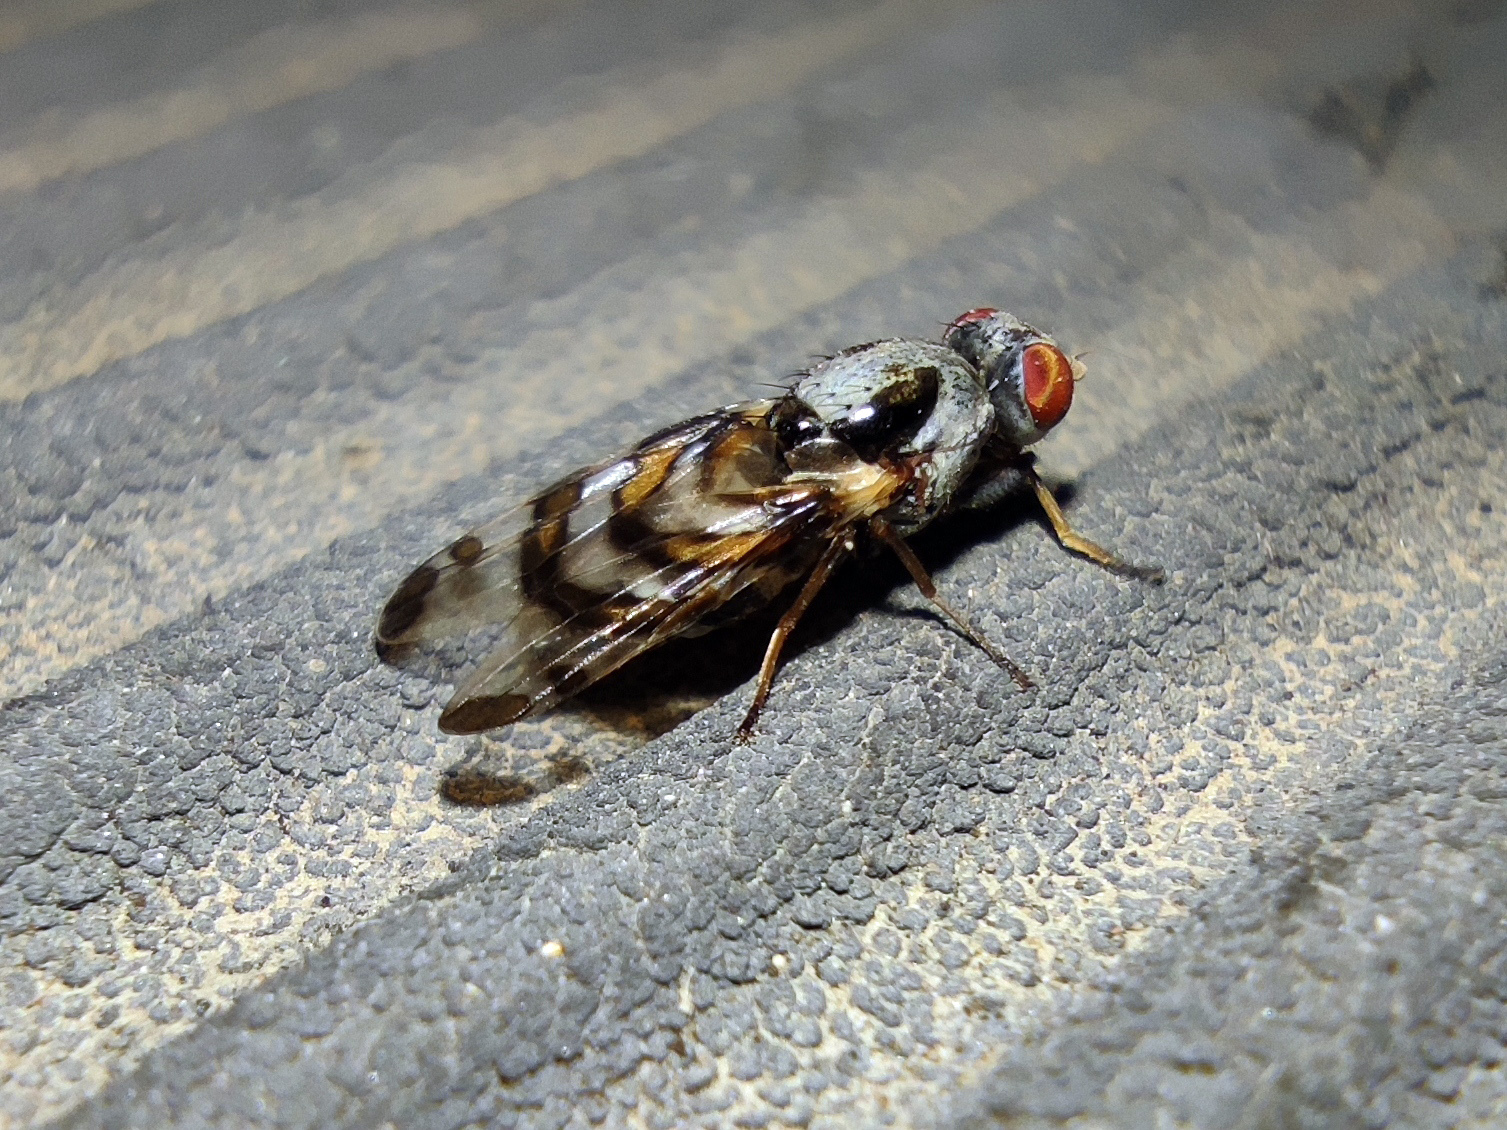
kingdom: Animalia
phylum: Arthropoda
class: Insecta
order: Diptera
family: Ulidiidae
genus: Myennis
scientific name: Myennis octopunctata
